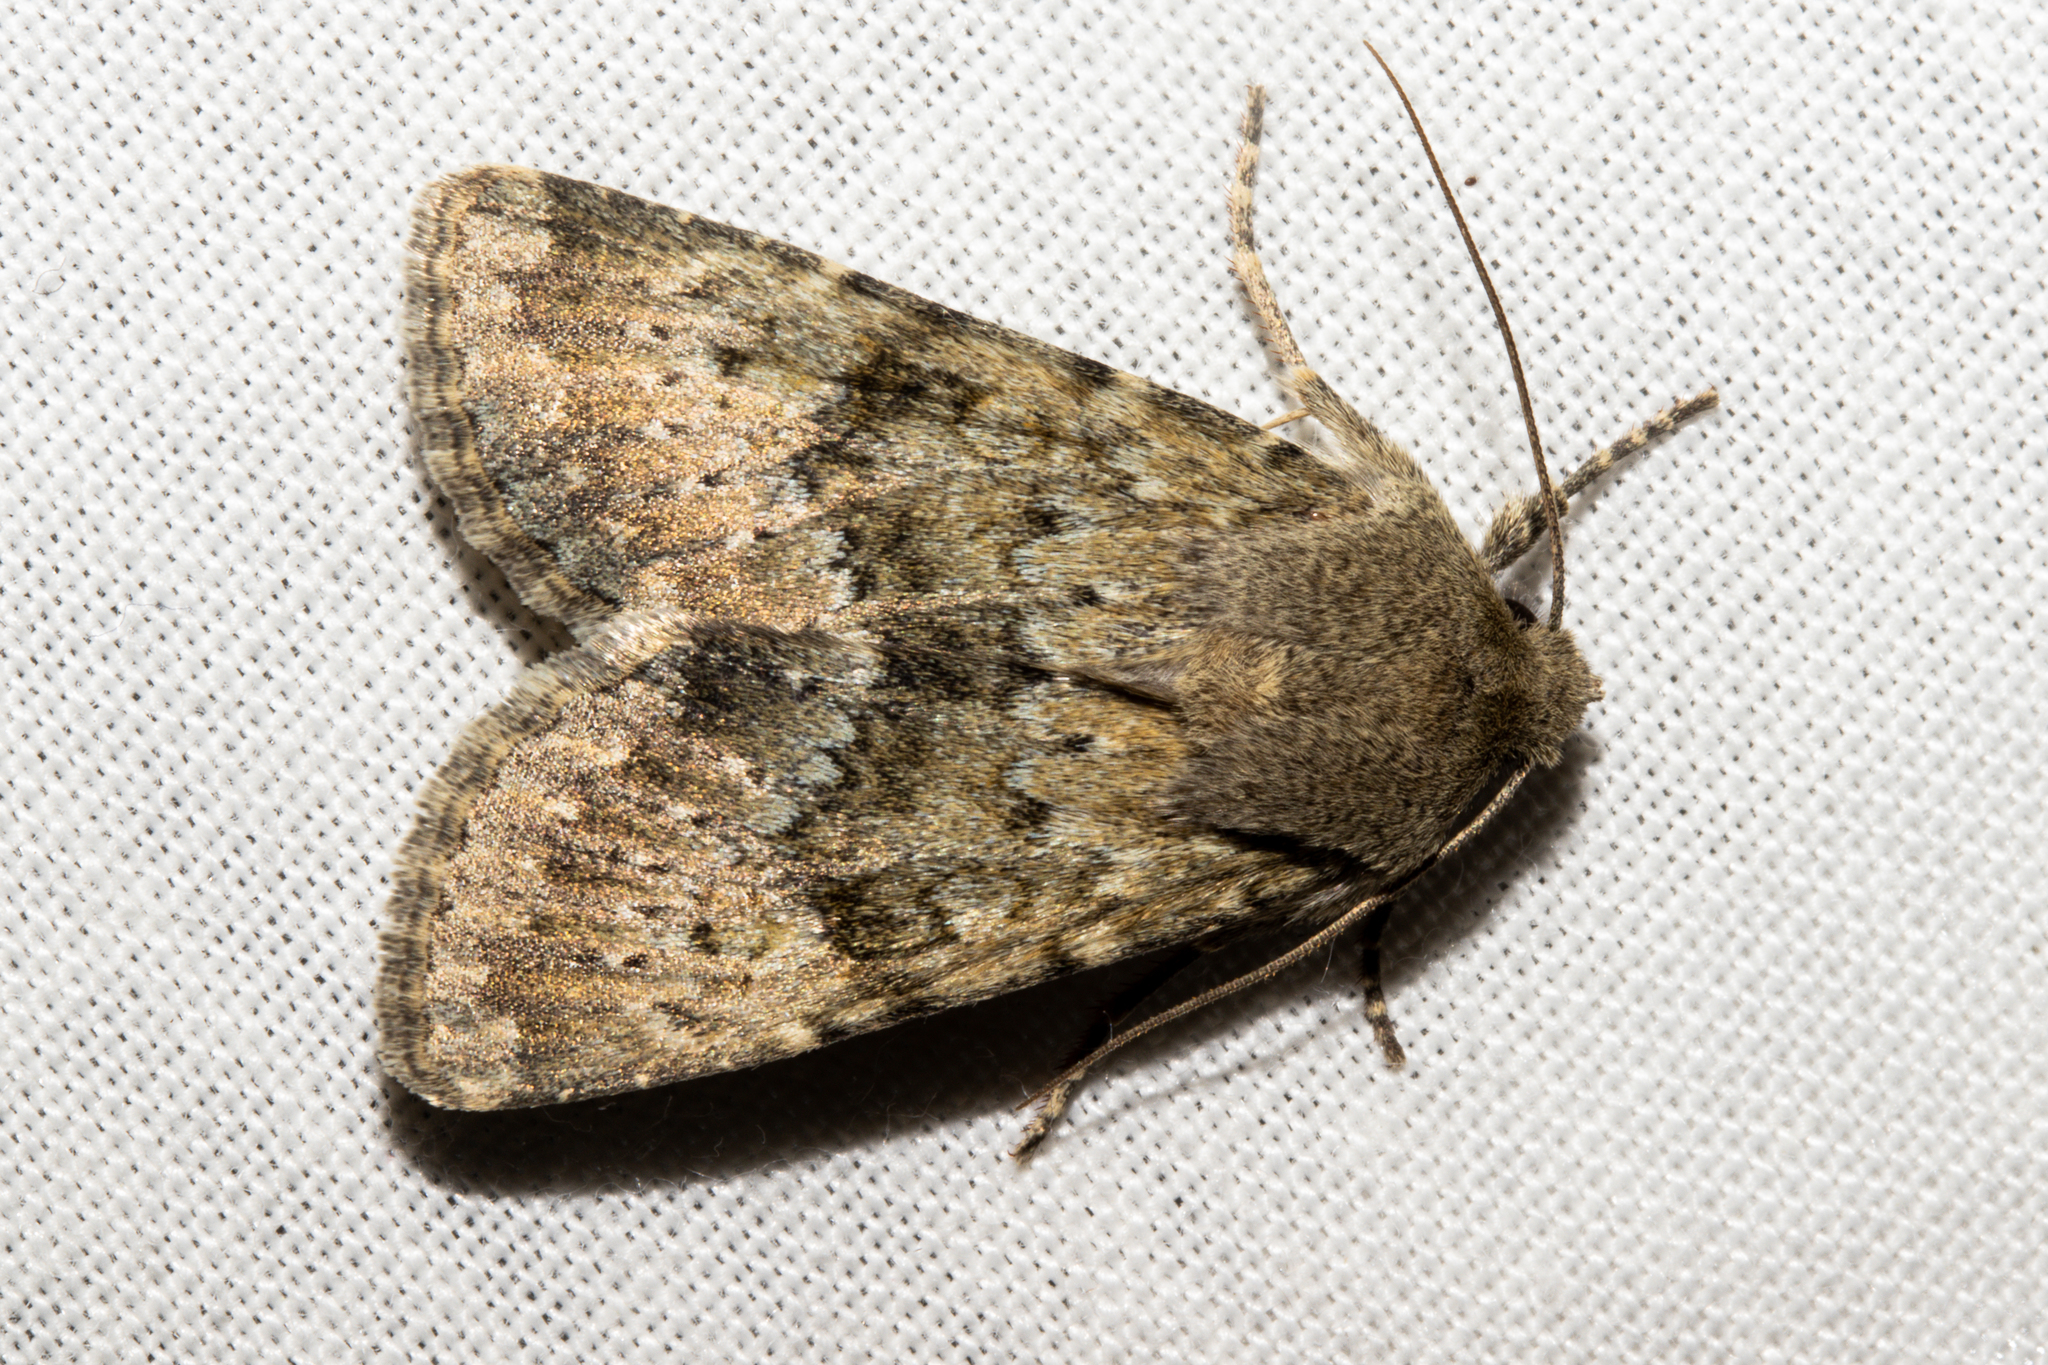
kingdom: Animalia
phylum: Arthropoda
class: Insecta
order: Lepidoptera
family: Noctuidae
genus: Ichneutica
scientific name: Ichneutica moderata
